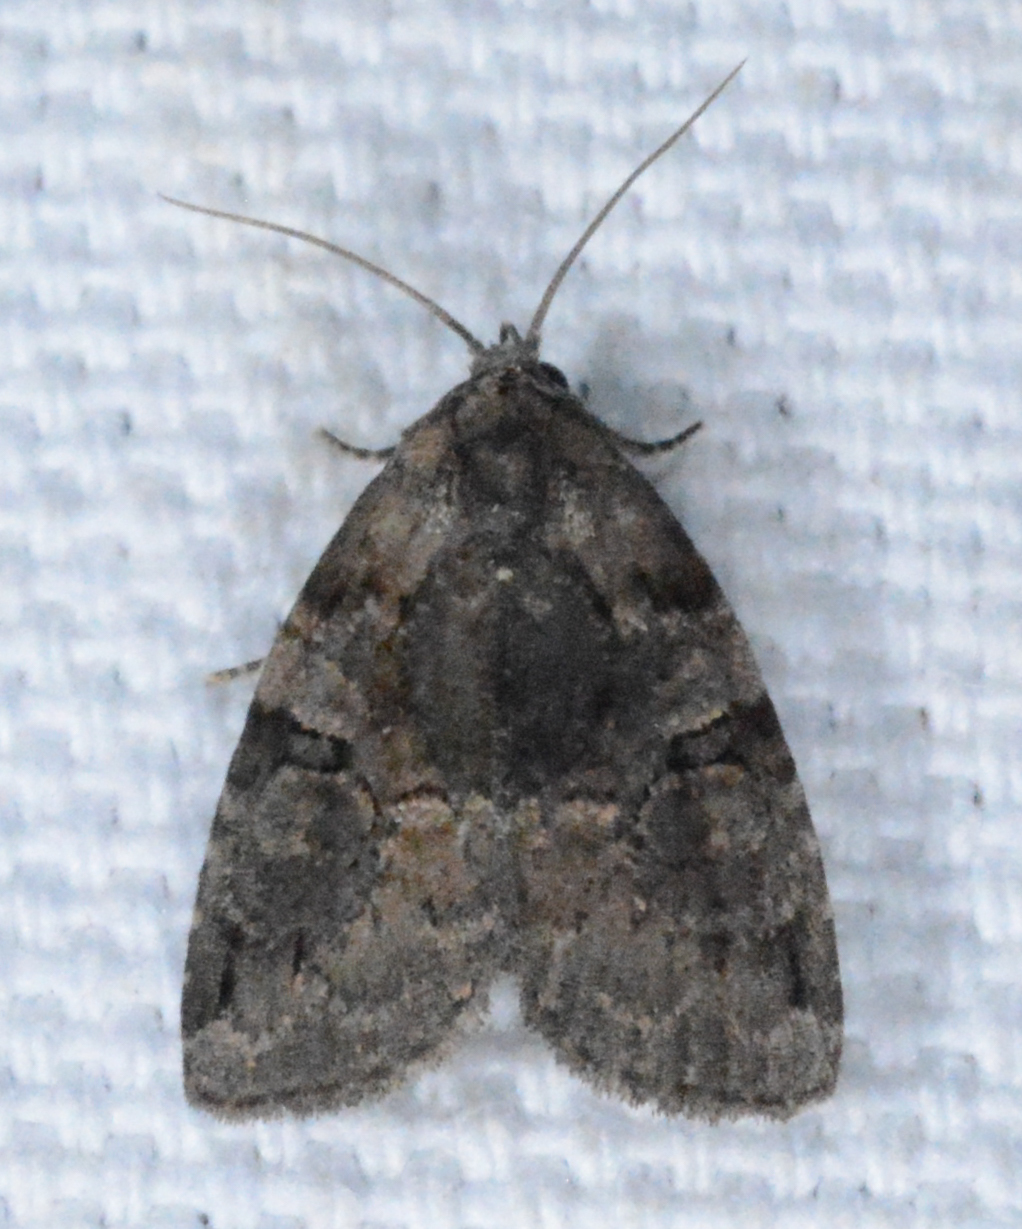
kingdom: Animalia
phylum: Arthropoda
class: Insecta
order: Lepidoptera
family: Noctuidae
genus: Pseudeustrotia
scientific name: Pseudeustrotia indeterminata
